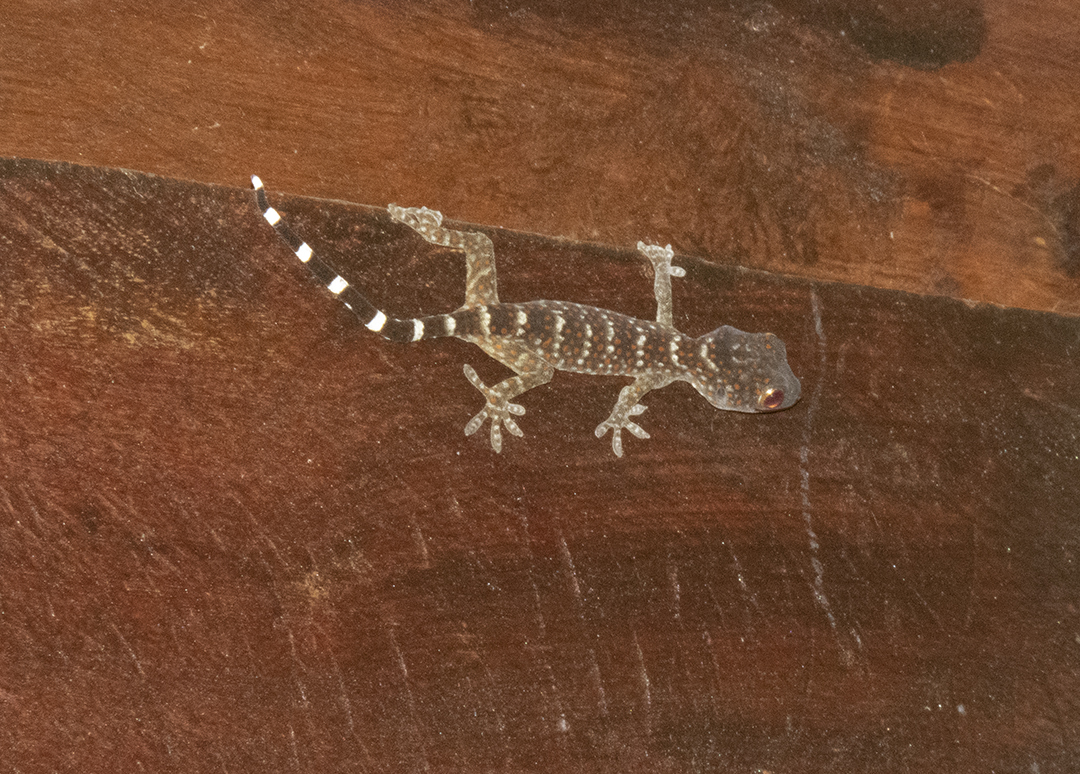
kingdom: Animalia
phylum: Chordata
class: Squamata
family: Gekkonidae
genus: Gekko
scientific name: Gekko gecko
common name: Tokay gecko
